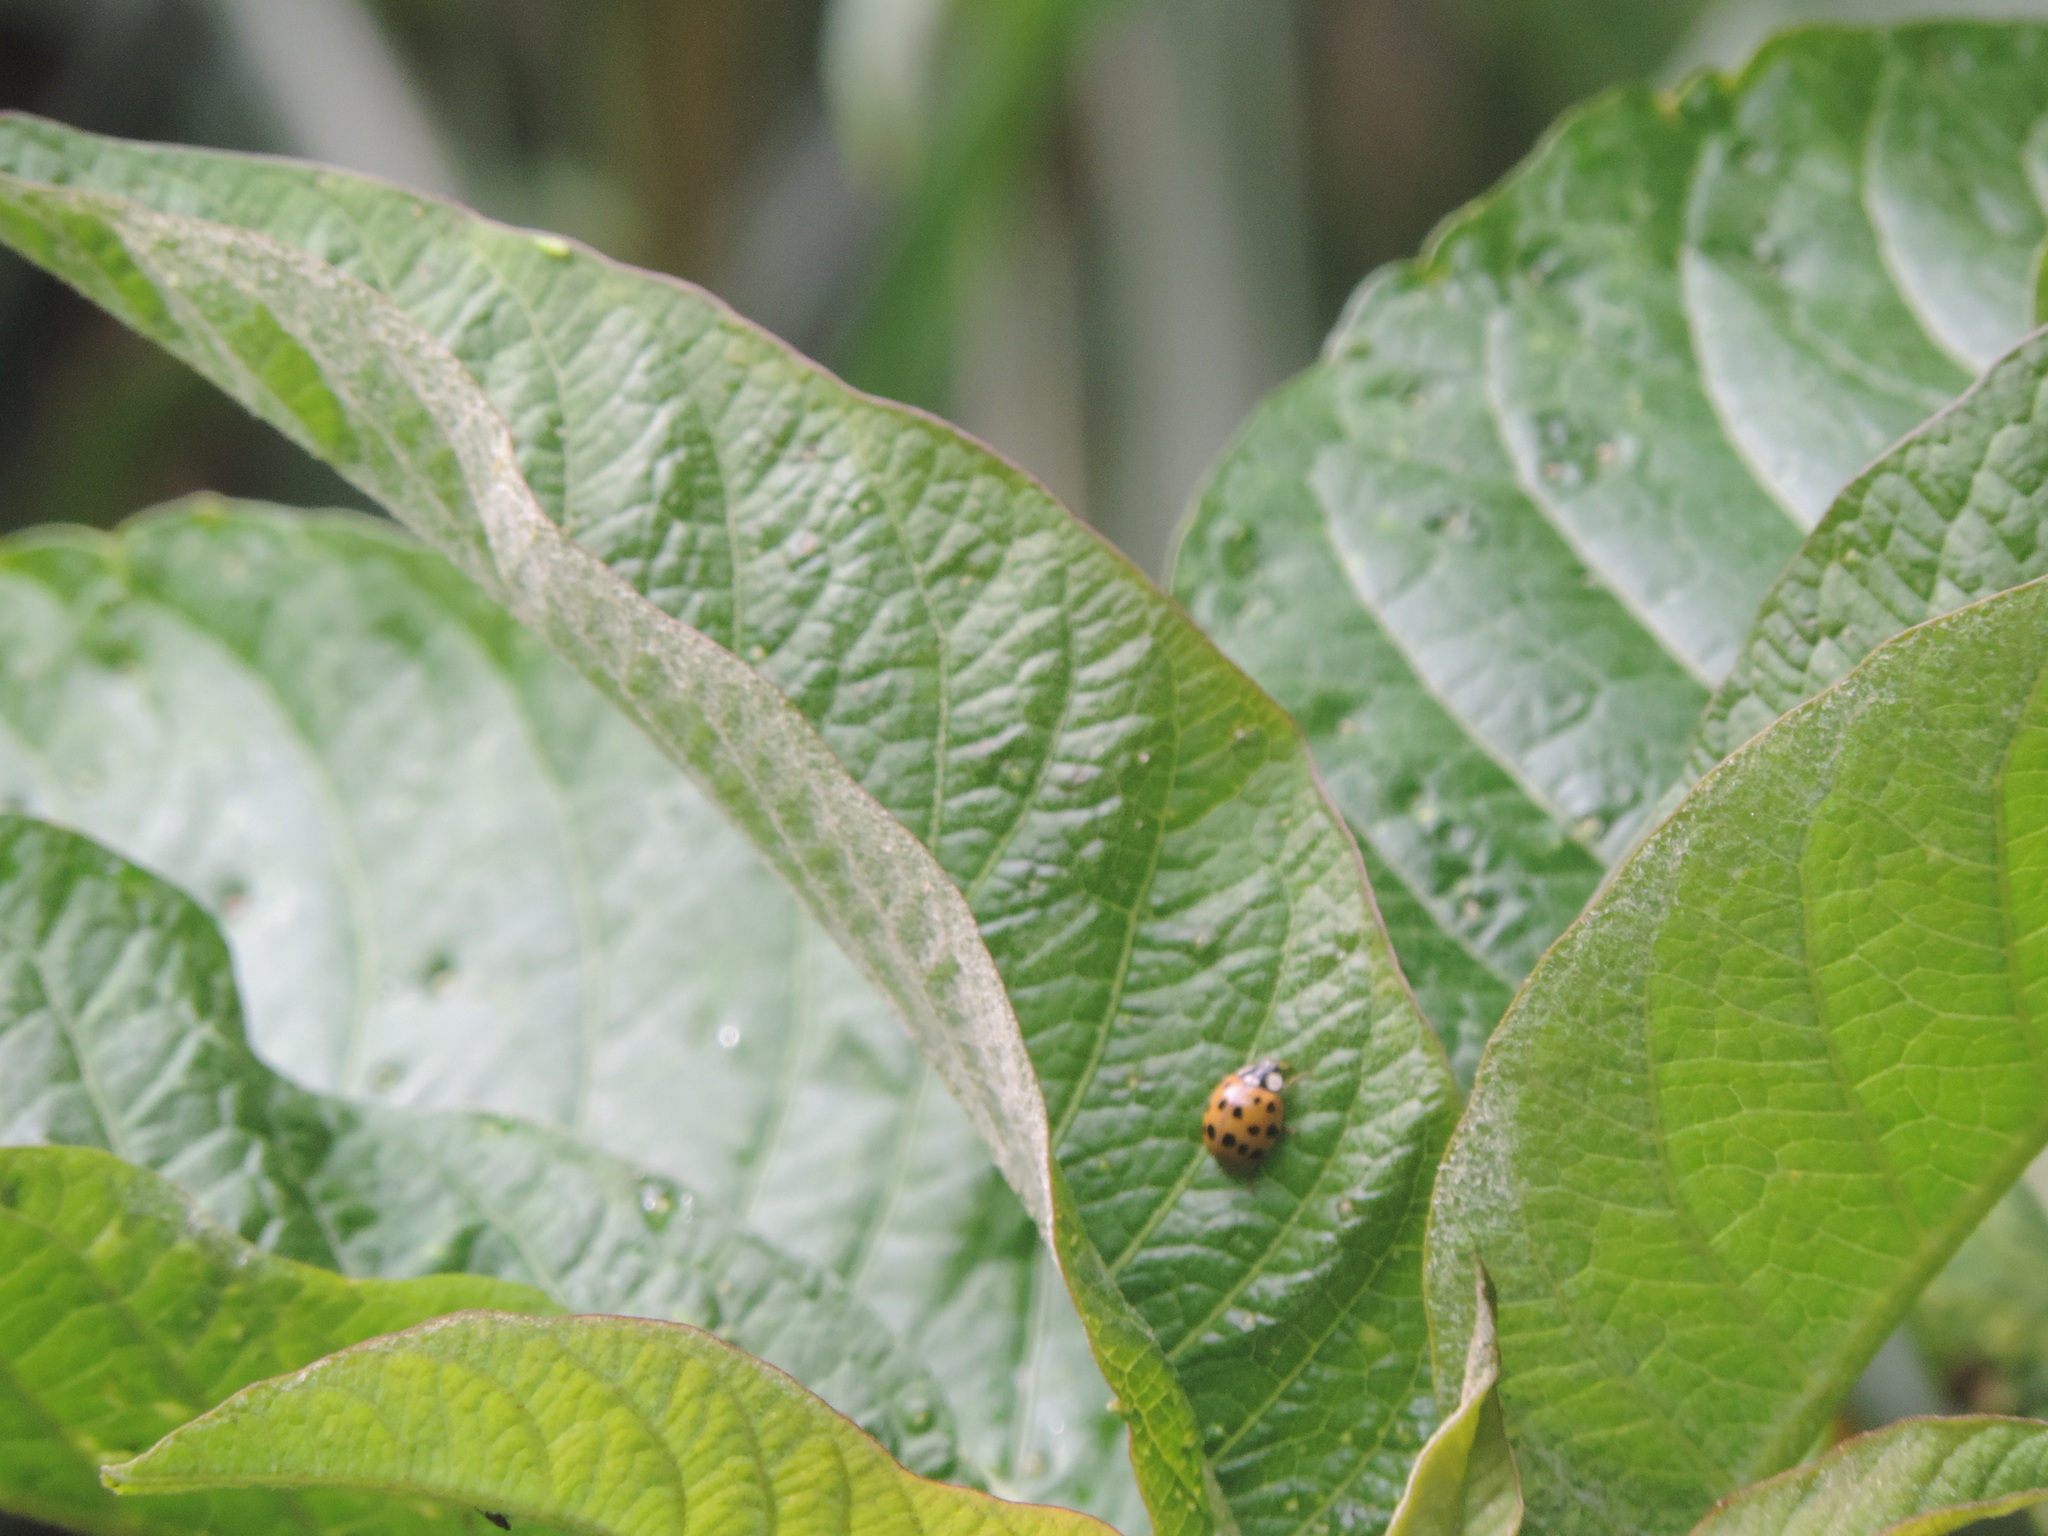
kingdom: Animalia
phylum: Arthropoda
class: Insecta
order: Coleoptera
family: Coccinellidae
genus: Harmonia
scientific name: Harmonia axyridis
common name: Harlequin ladybird
